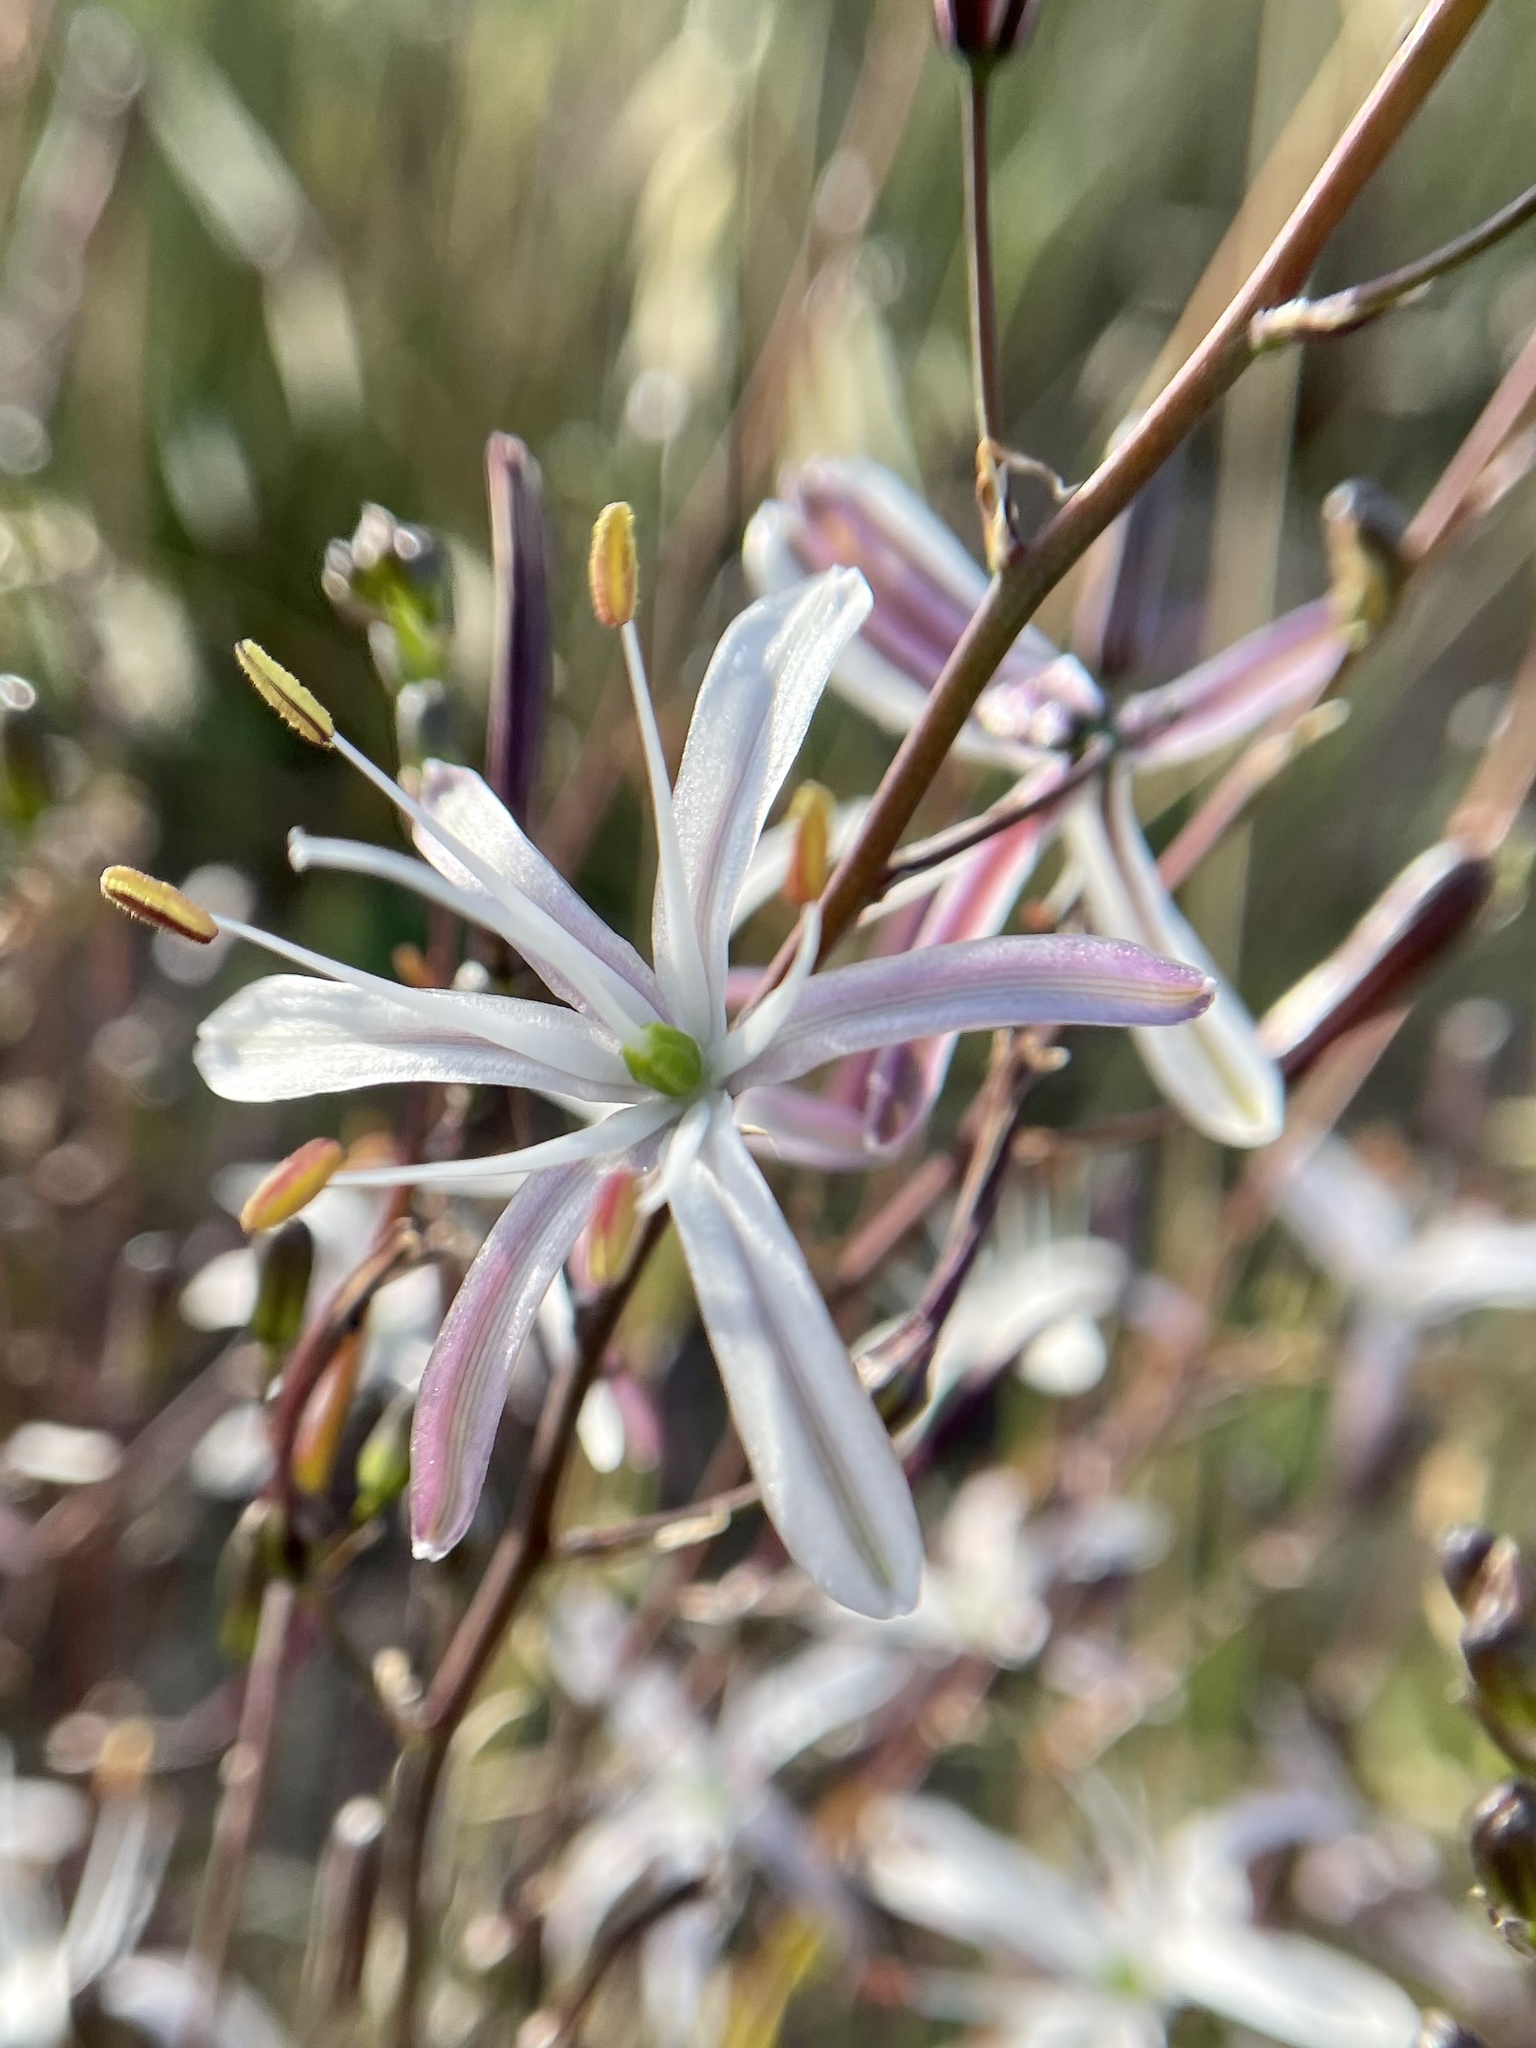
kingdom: Plantae
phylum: Tracheophyta
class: Liliopsida
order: Asparagales
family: Asparagaceae
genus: Chlorogalum
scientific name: Chlorogalum pomeridianum
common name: Amole
